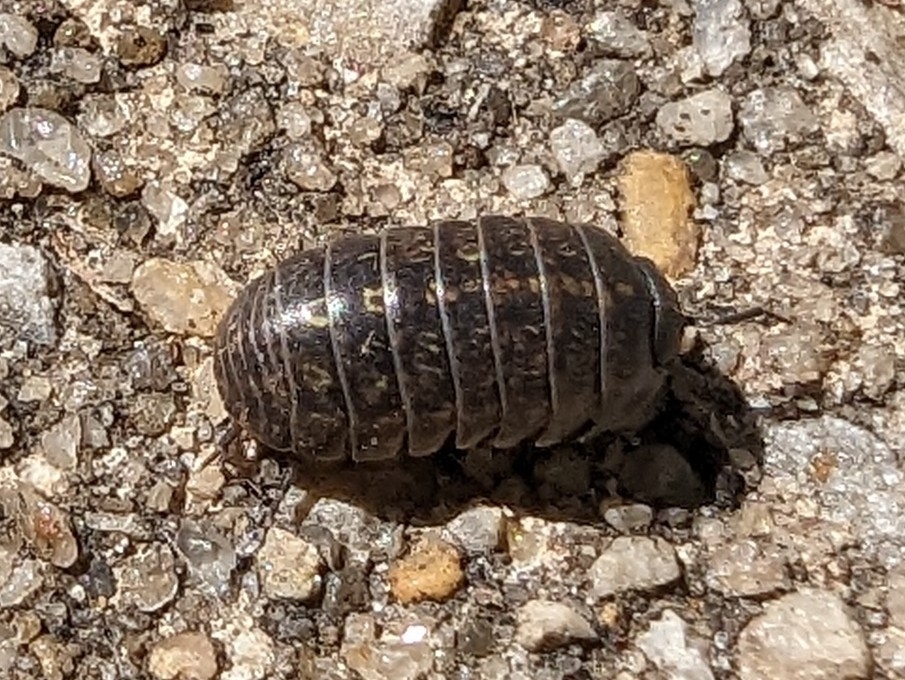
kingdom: Animalia
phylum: Arthropoda
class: Malacostraca
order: Isopoda
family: Armadillidiidae
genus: Armadillidium
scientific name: Armadillidium vulgare
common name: Common pill woodlouse
